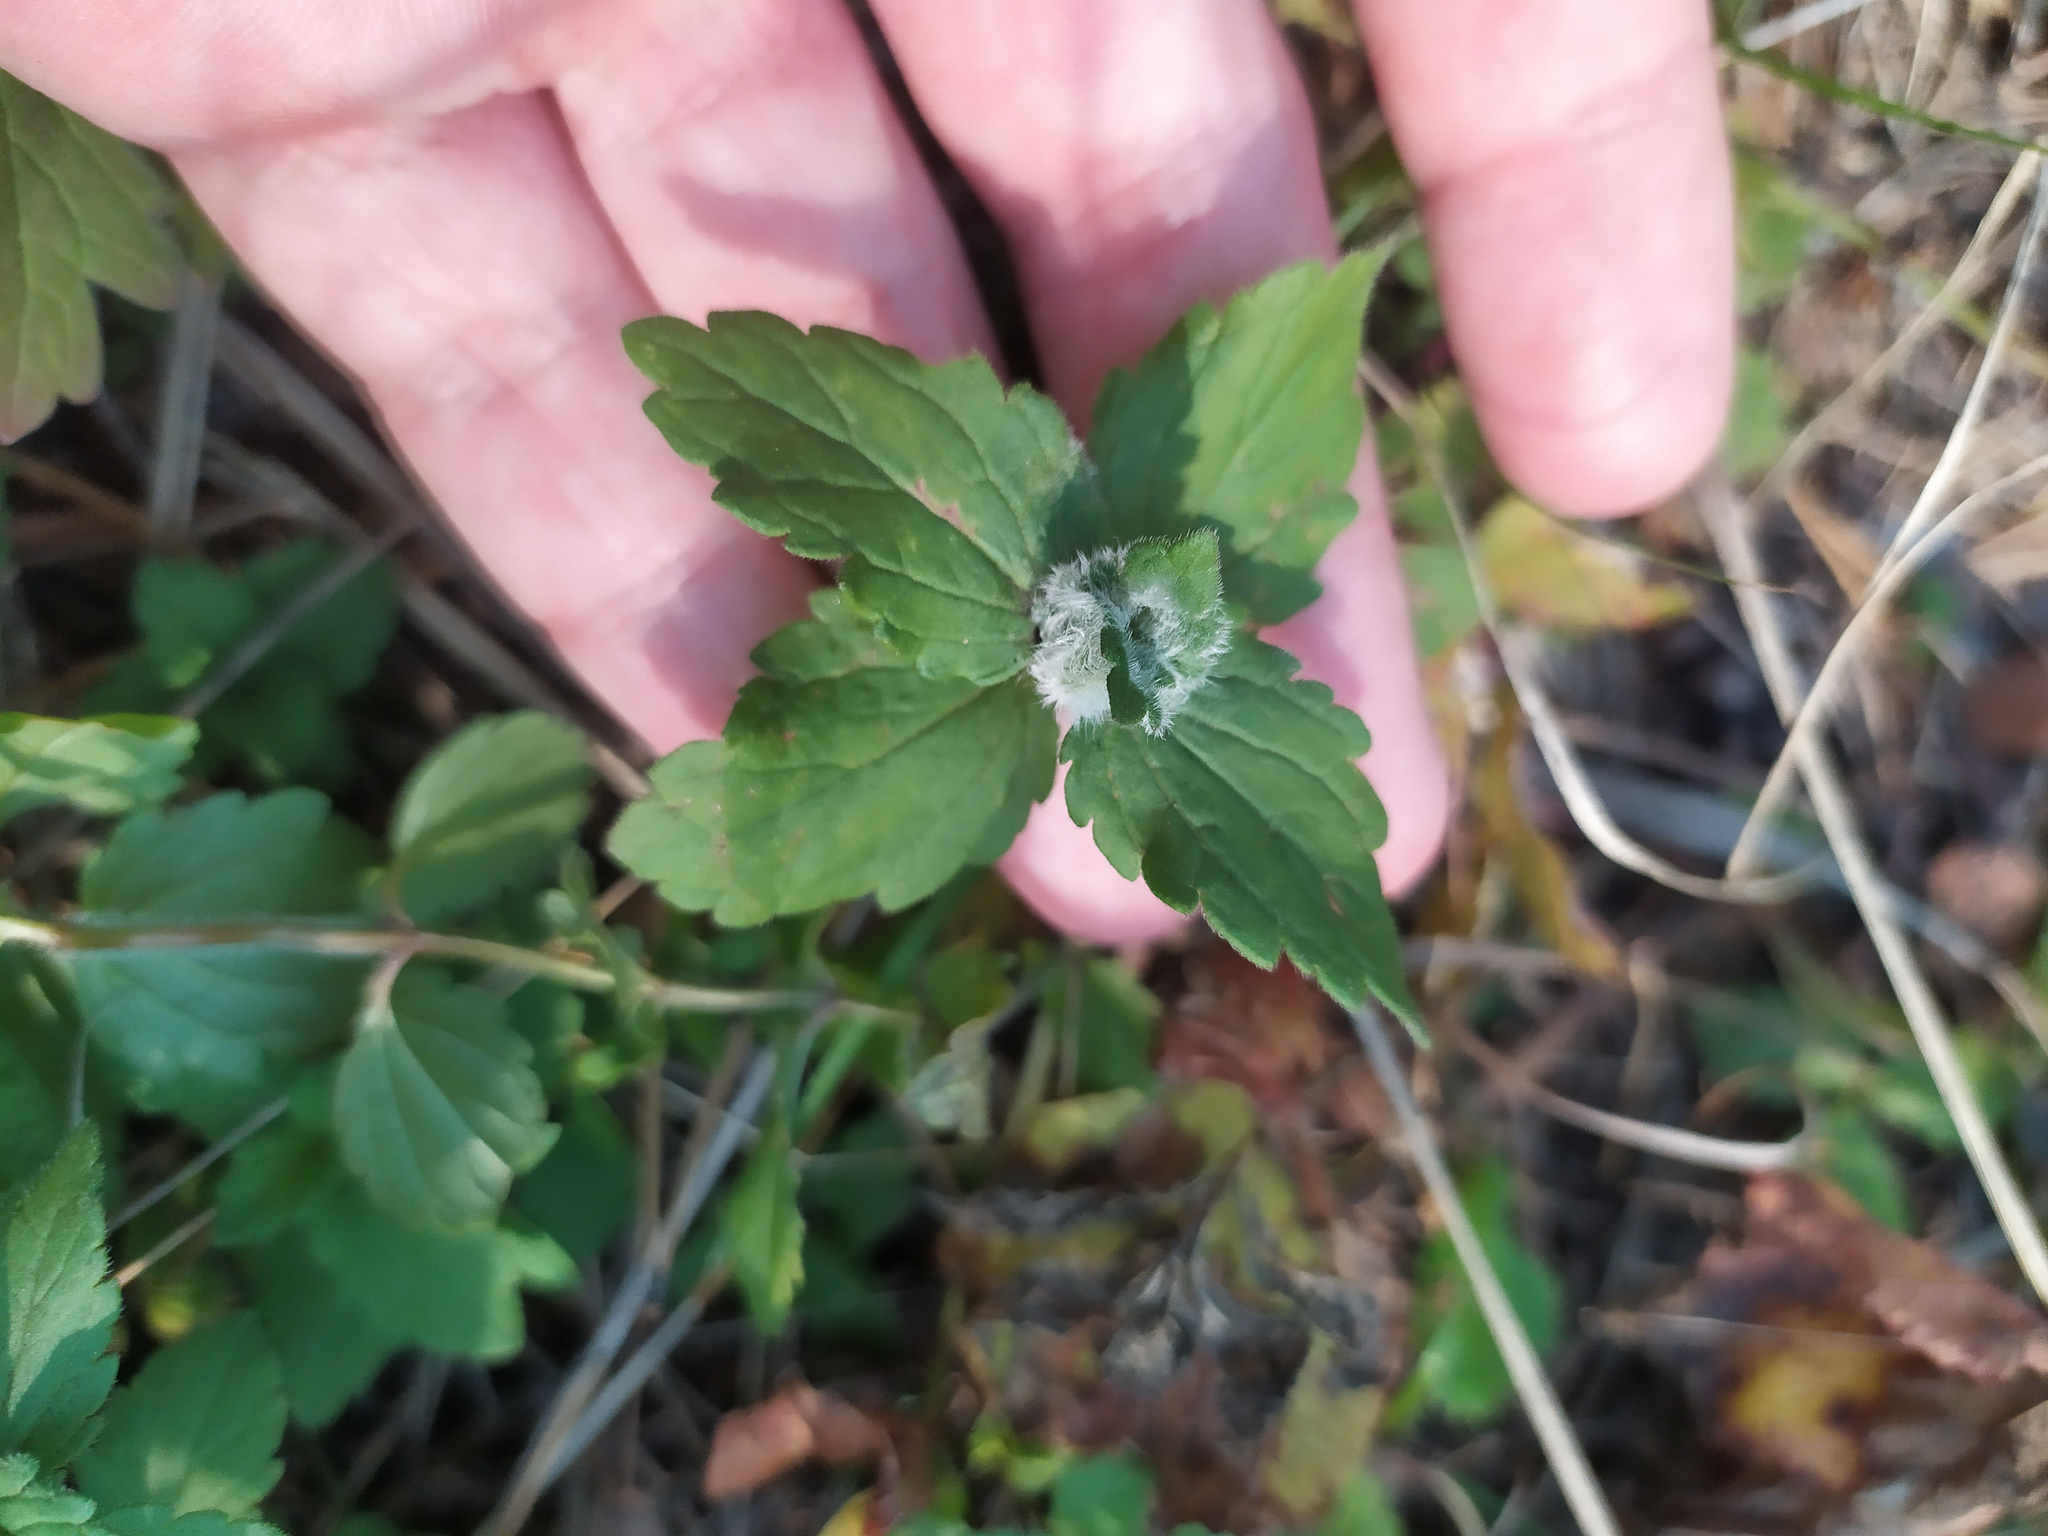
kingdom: Plantae
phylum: Tracheophyta
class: Magnoliopsida
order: Lamiales
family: Plantaginaceae
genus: Veronica
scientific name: Veronica chamaedrys
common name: Germander speedwell
